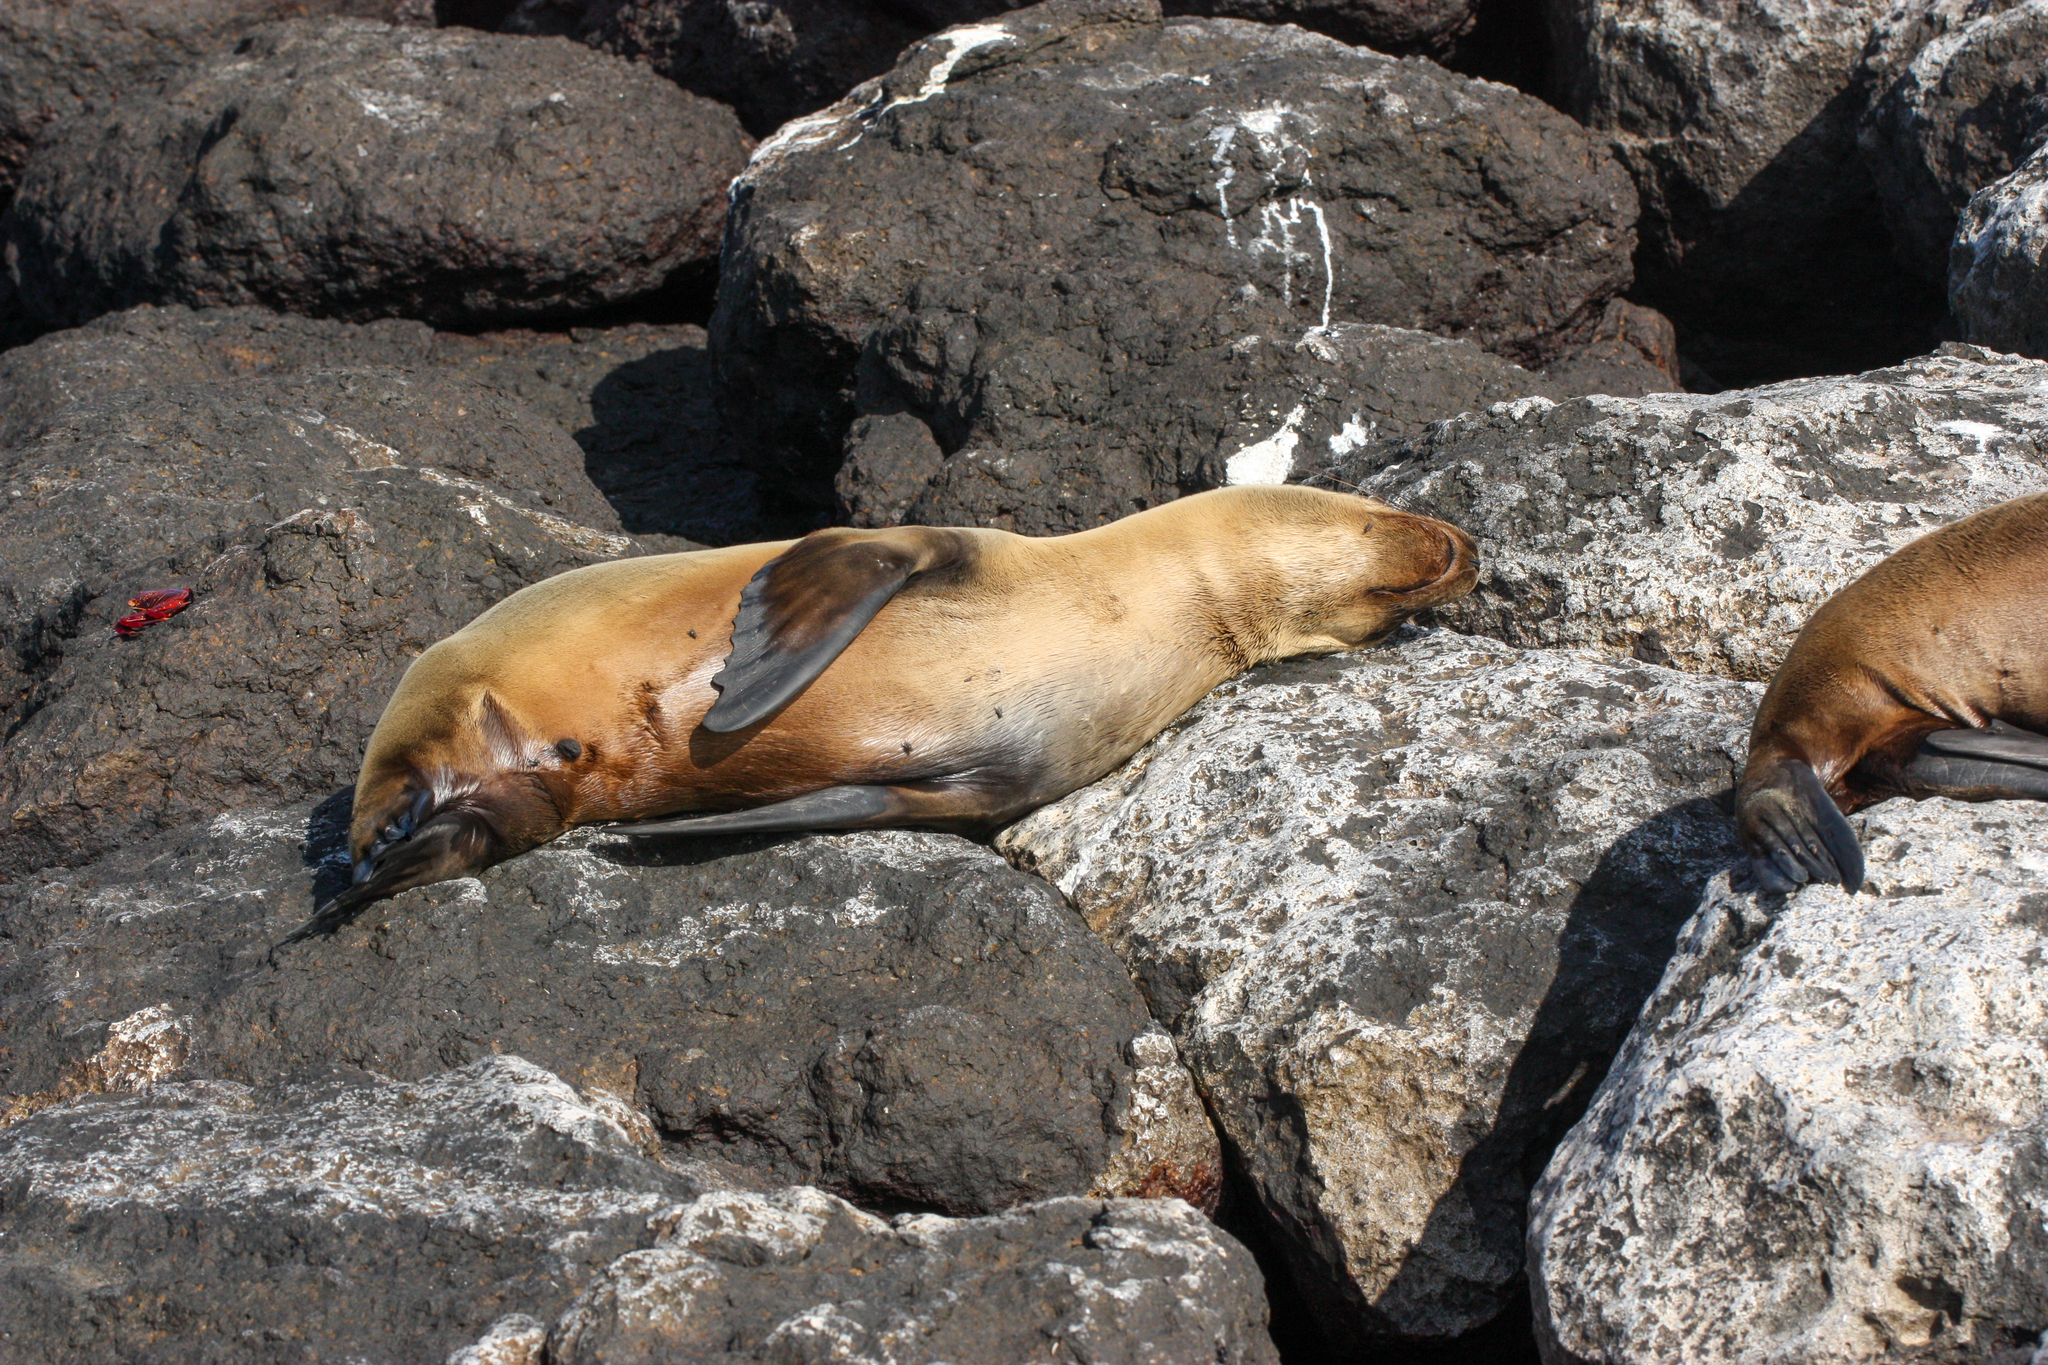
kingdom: Animalia
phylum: Chordata
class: Mammalia
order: Carnivora
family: Otariidae
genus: Zalophus
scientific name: Zalophus wollebaeki
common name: Galapagos sea lion
